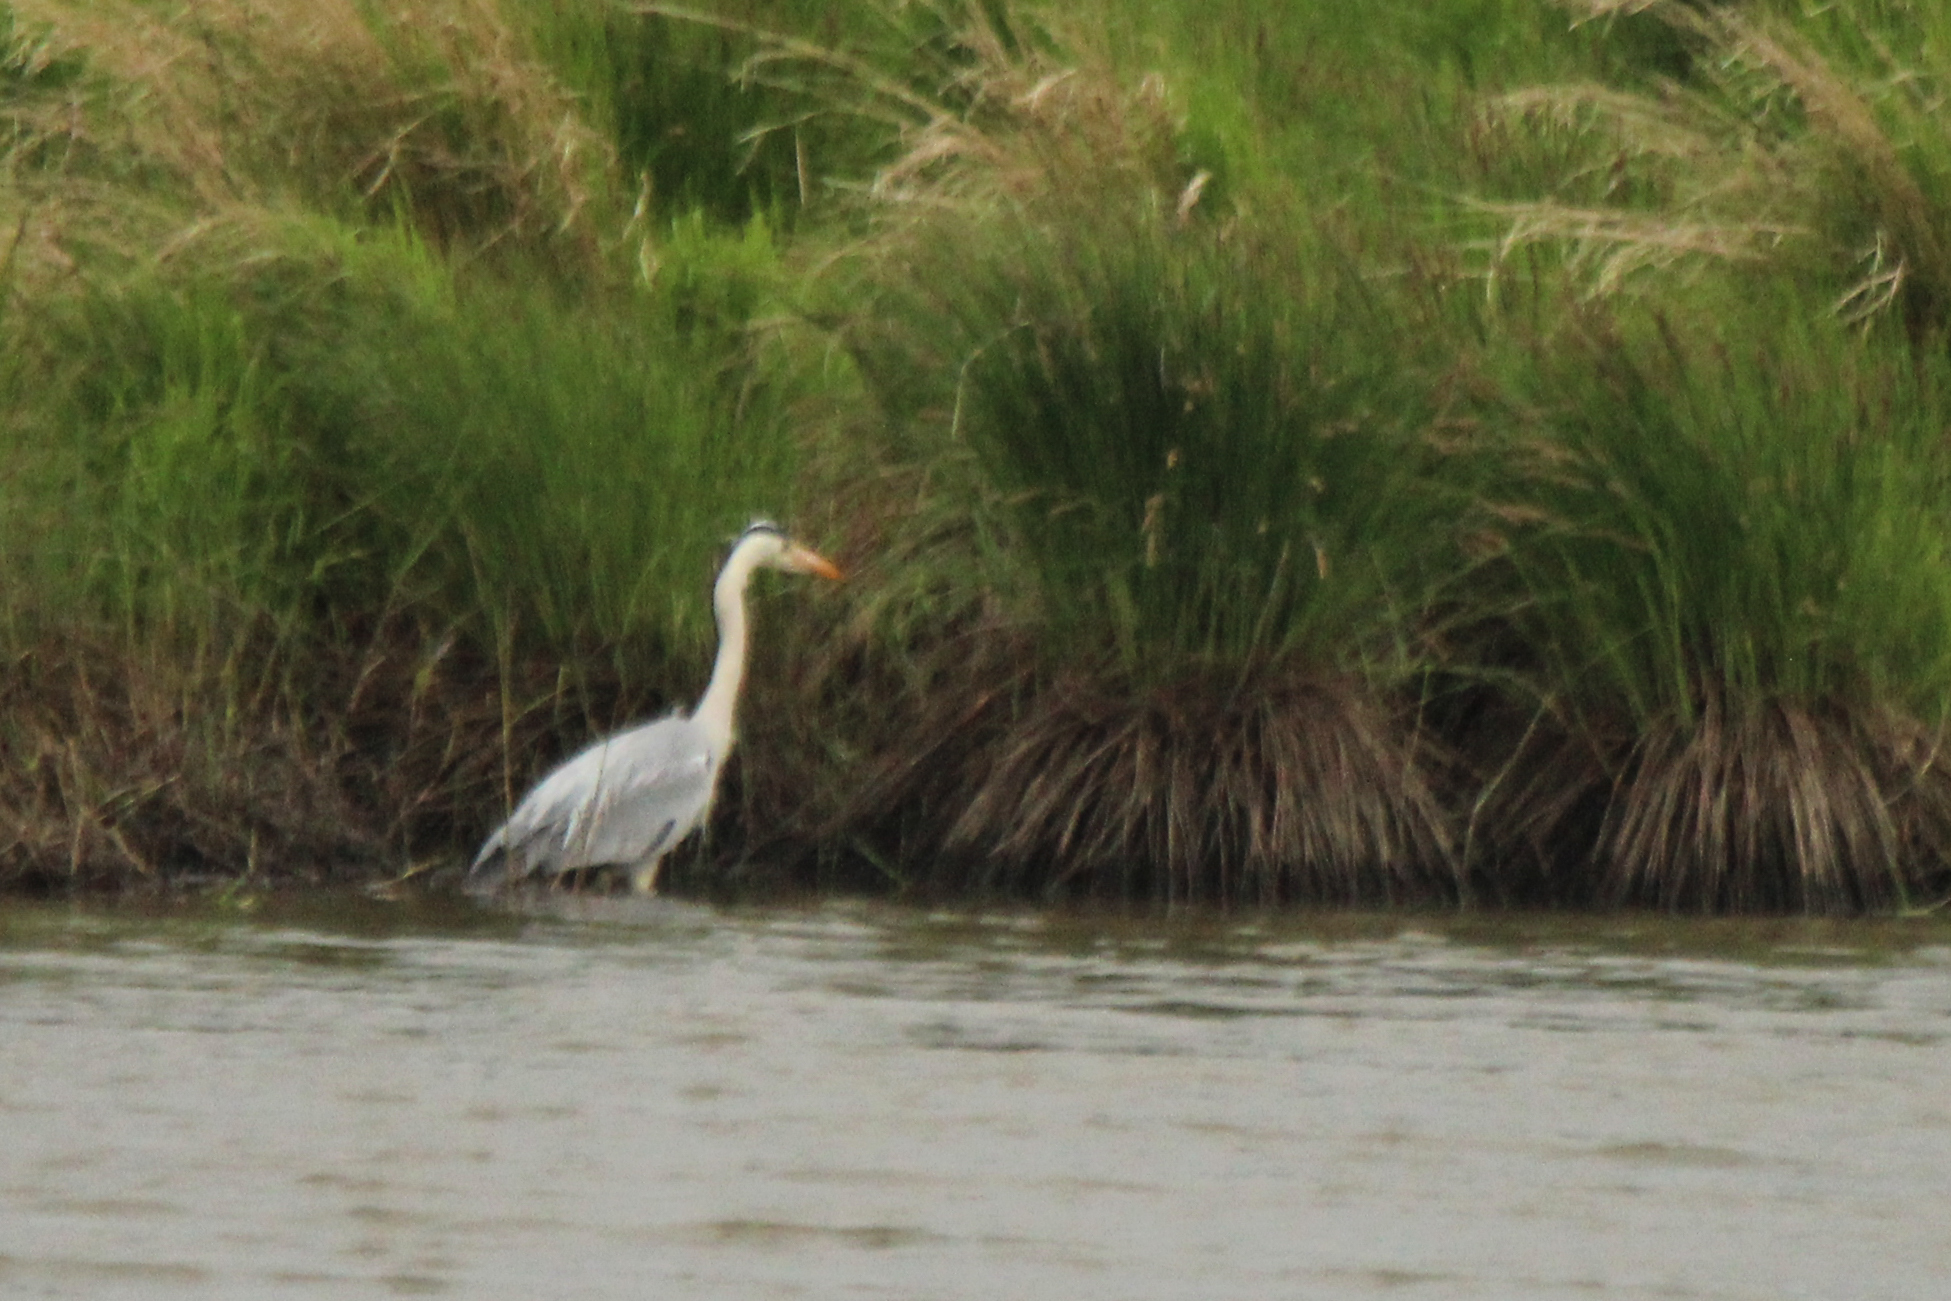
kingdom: Animalia
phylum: Chordata
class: Aves
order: Pelecaniformes
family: Ardeidae
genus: Ardea
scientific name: Ardea cinerea
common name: Grey heron
